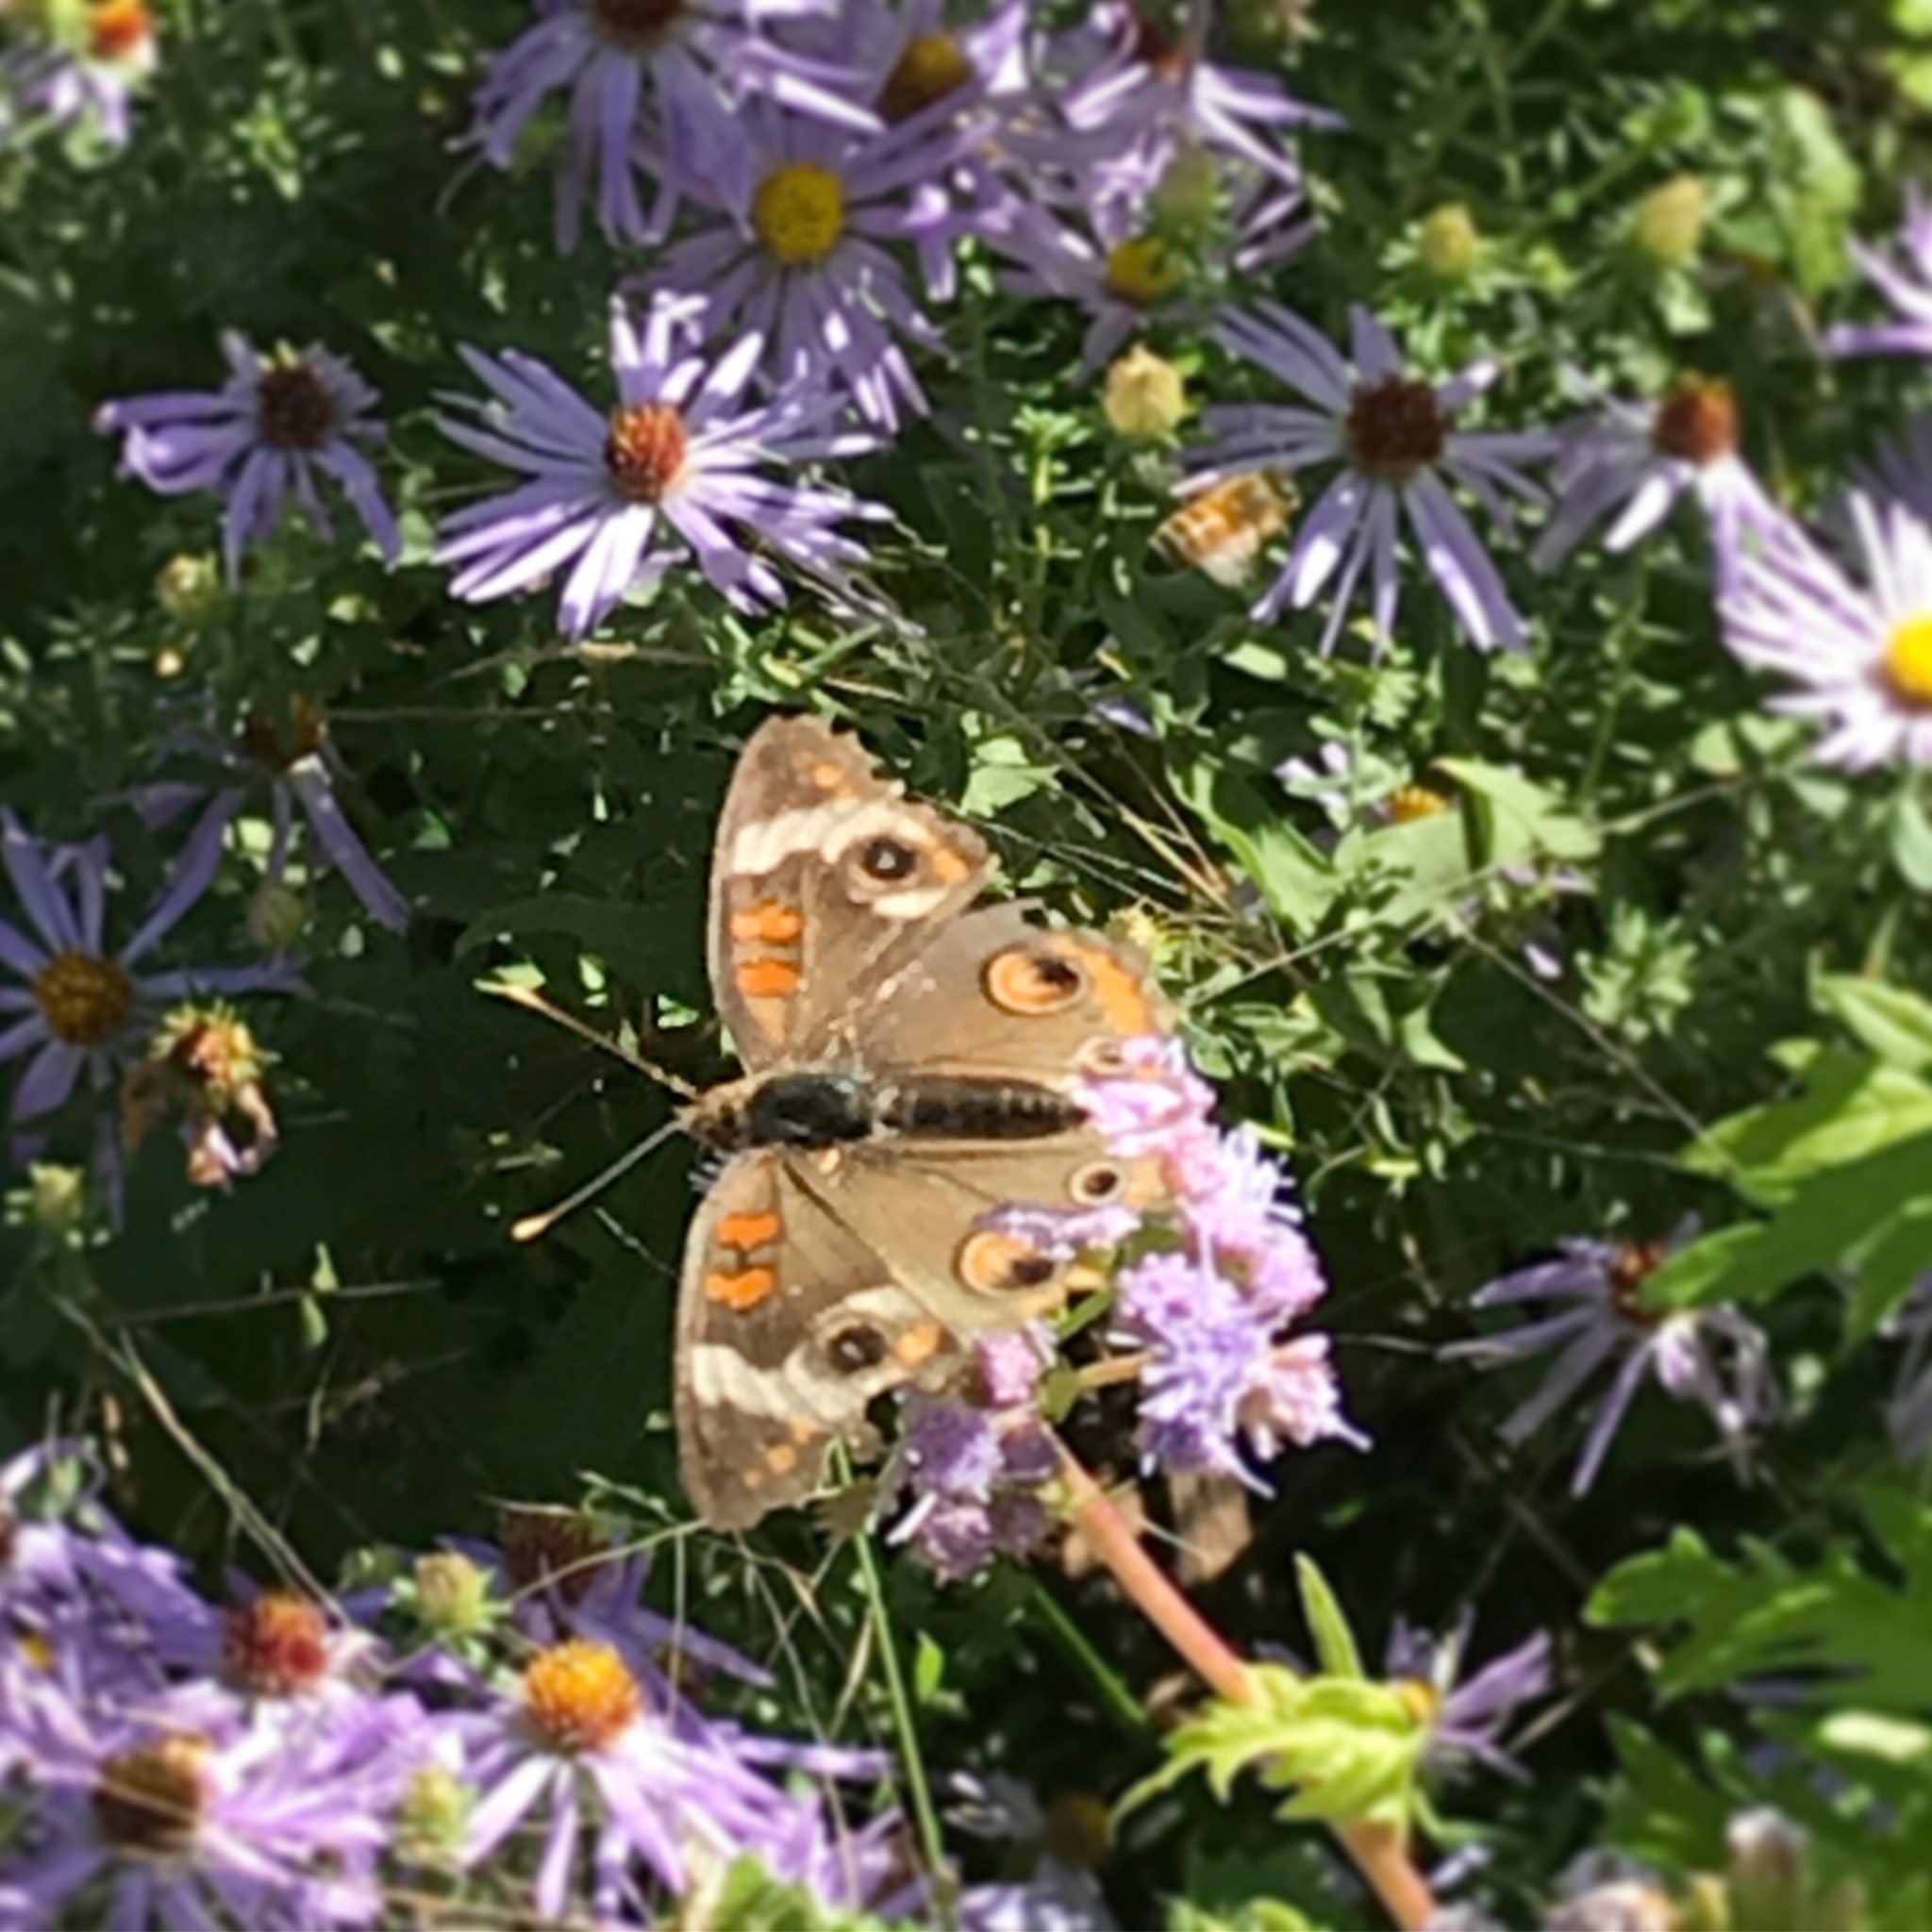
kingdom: Animalia
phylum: Arthropoda
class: Insecta
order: Lepidoptera
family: Nymphalidae
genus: Junonia
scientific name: Junonia coenia
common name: Common buckeye
